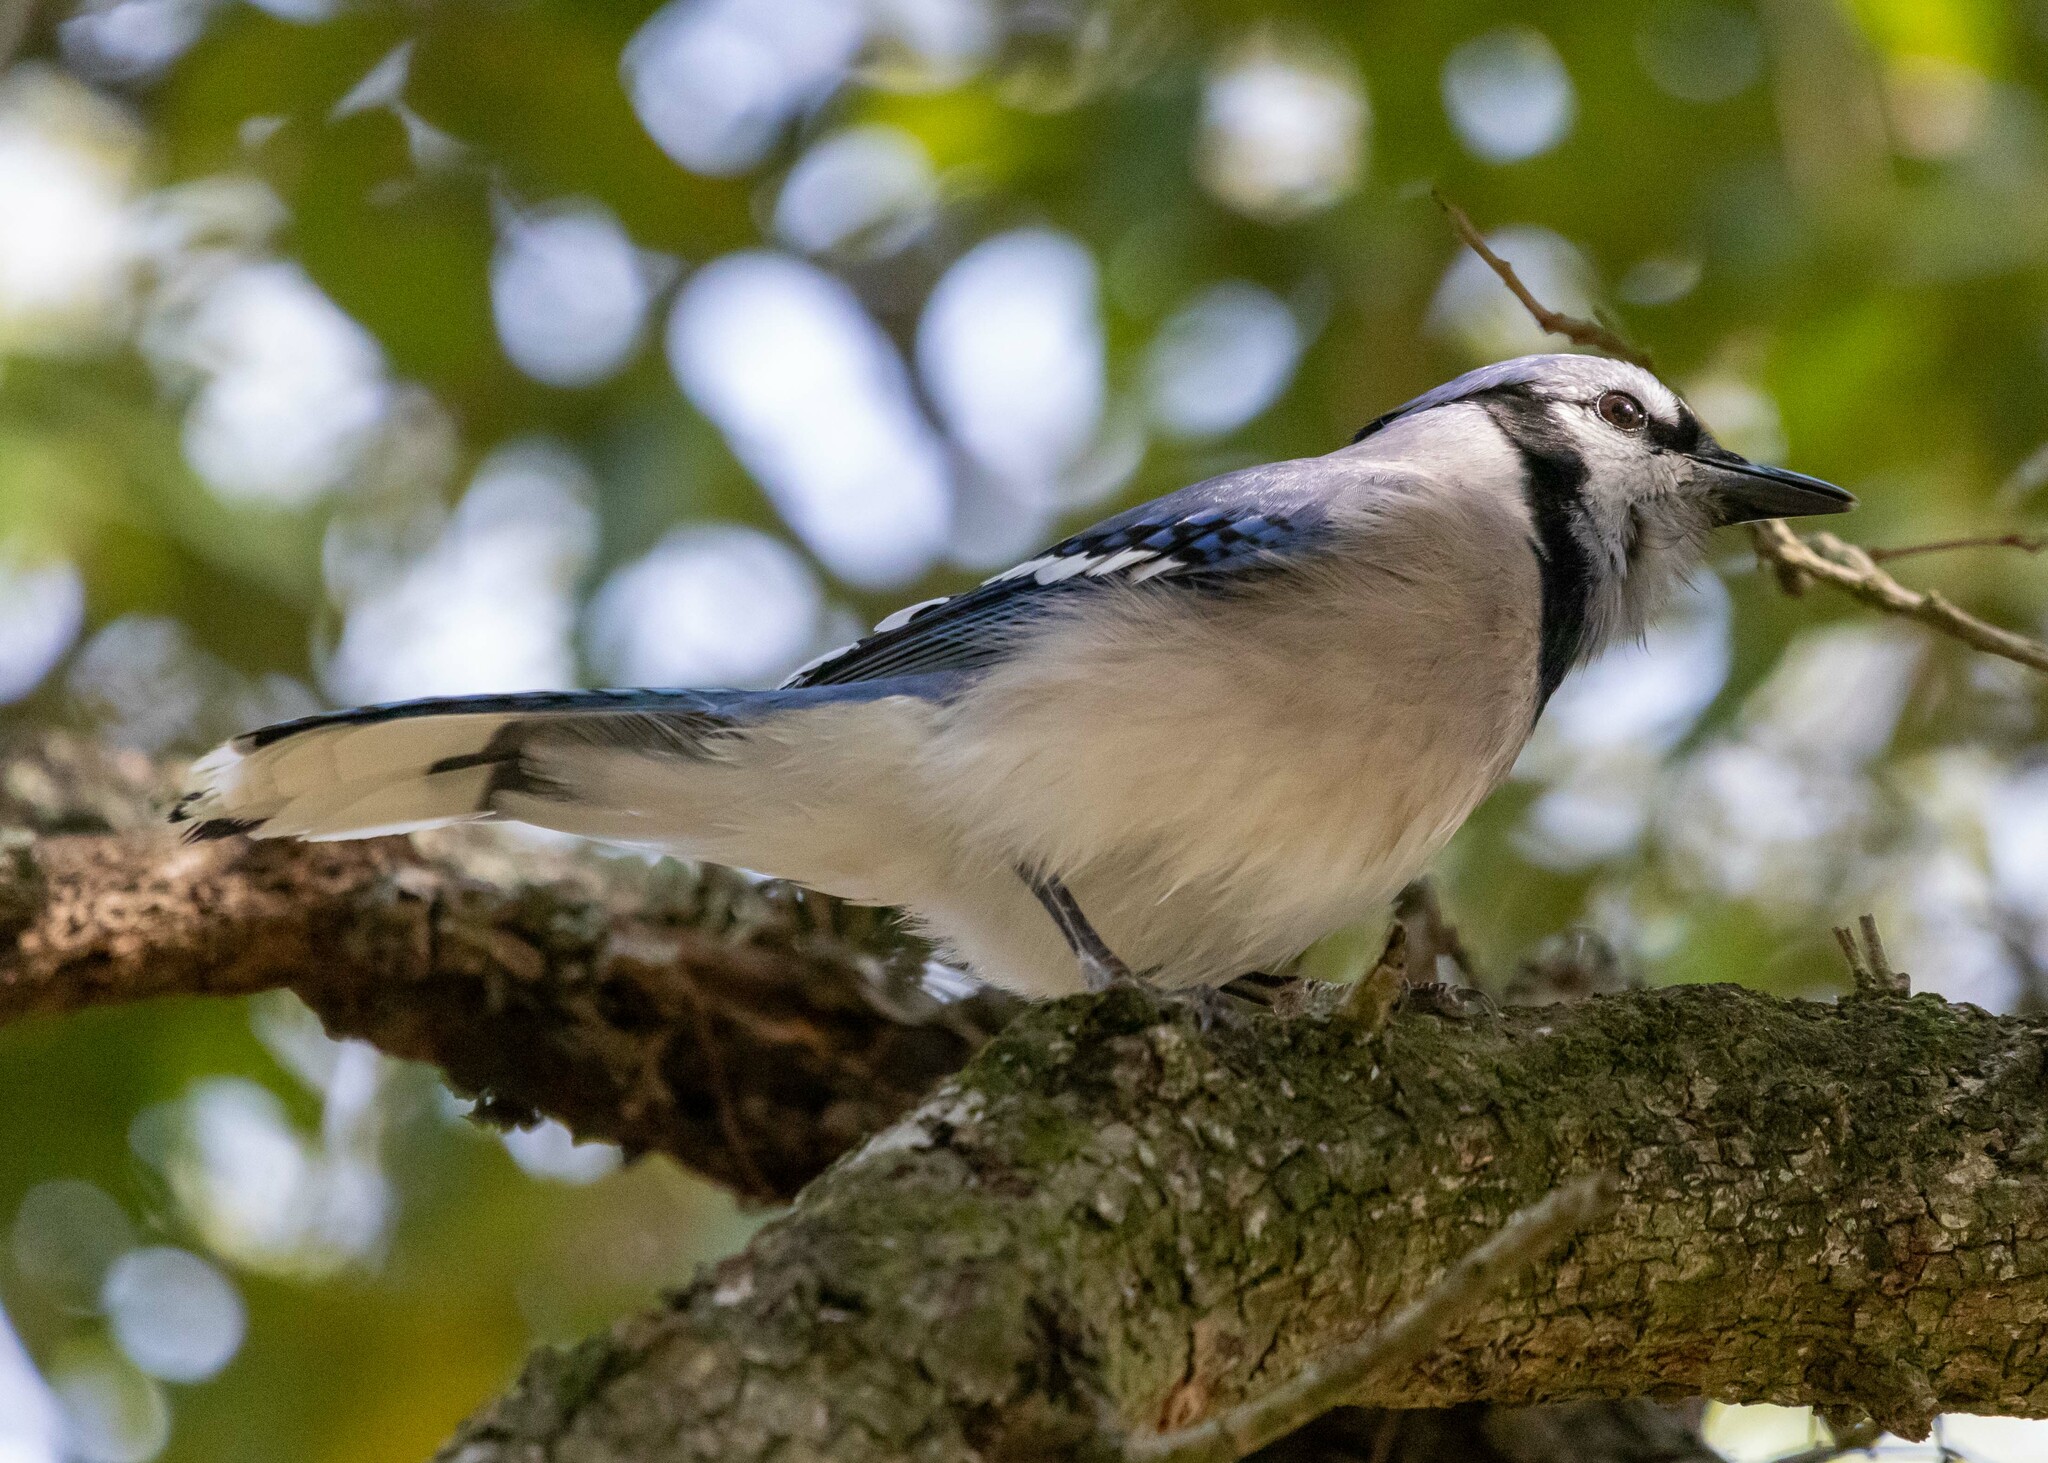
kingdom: Animalia
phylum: Chordata
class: Aves
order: Passeriformes
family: Corvidae
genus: Cyanocitta
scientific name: Cyanocitta cristata
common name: Blue jay
